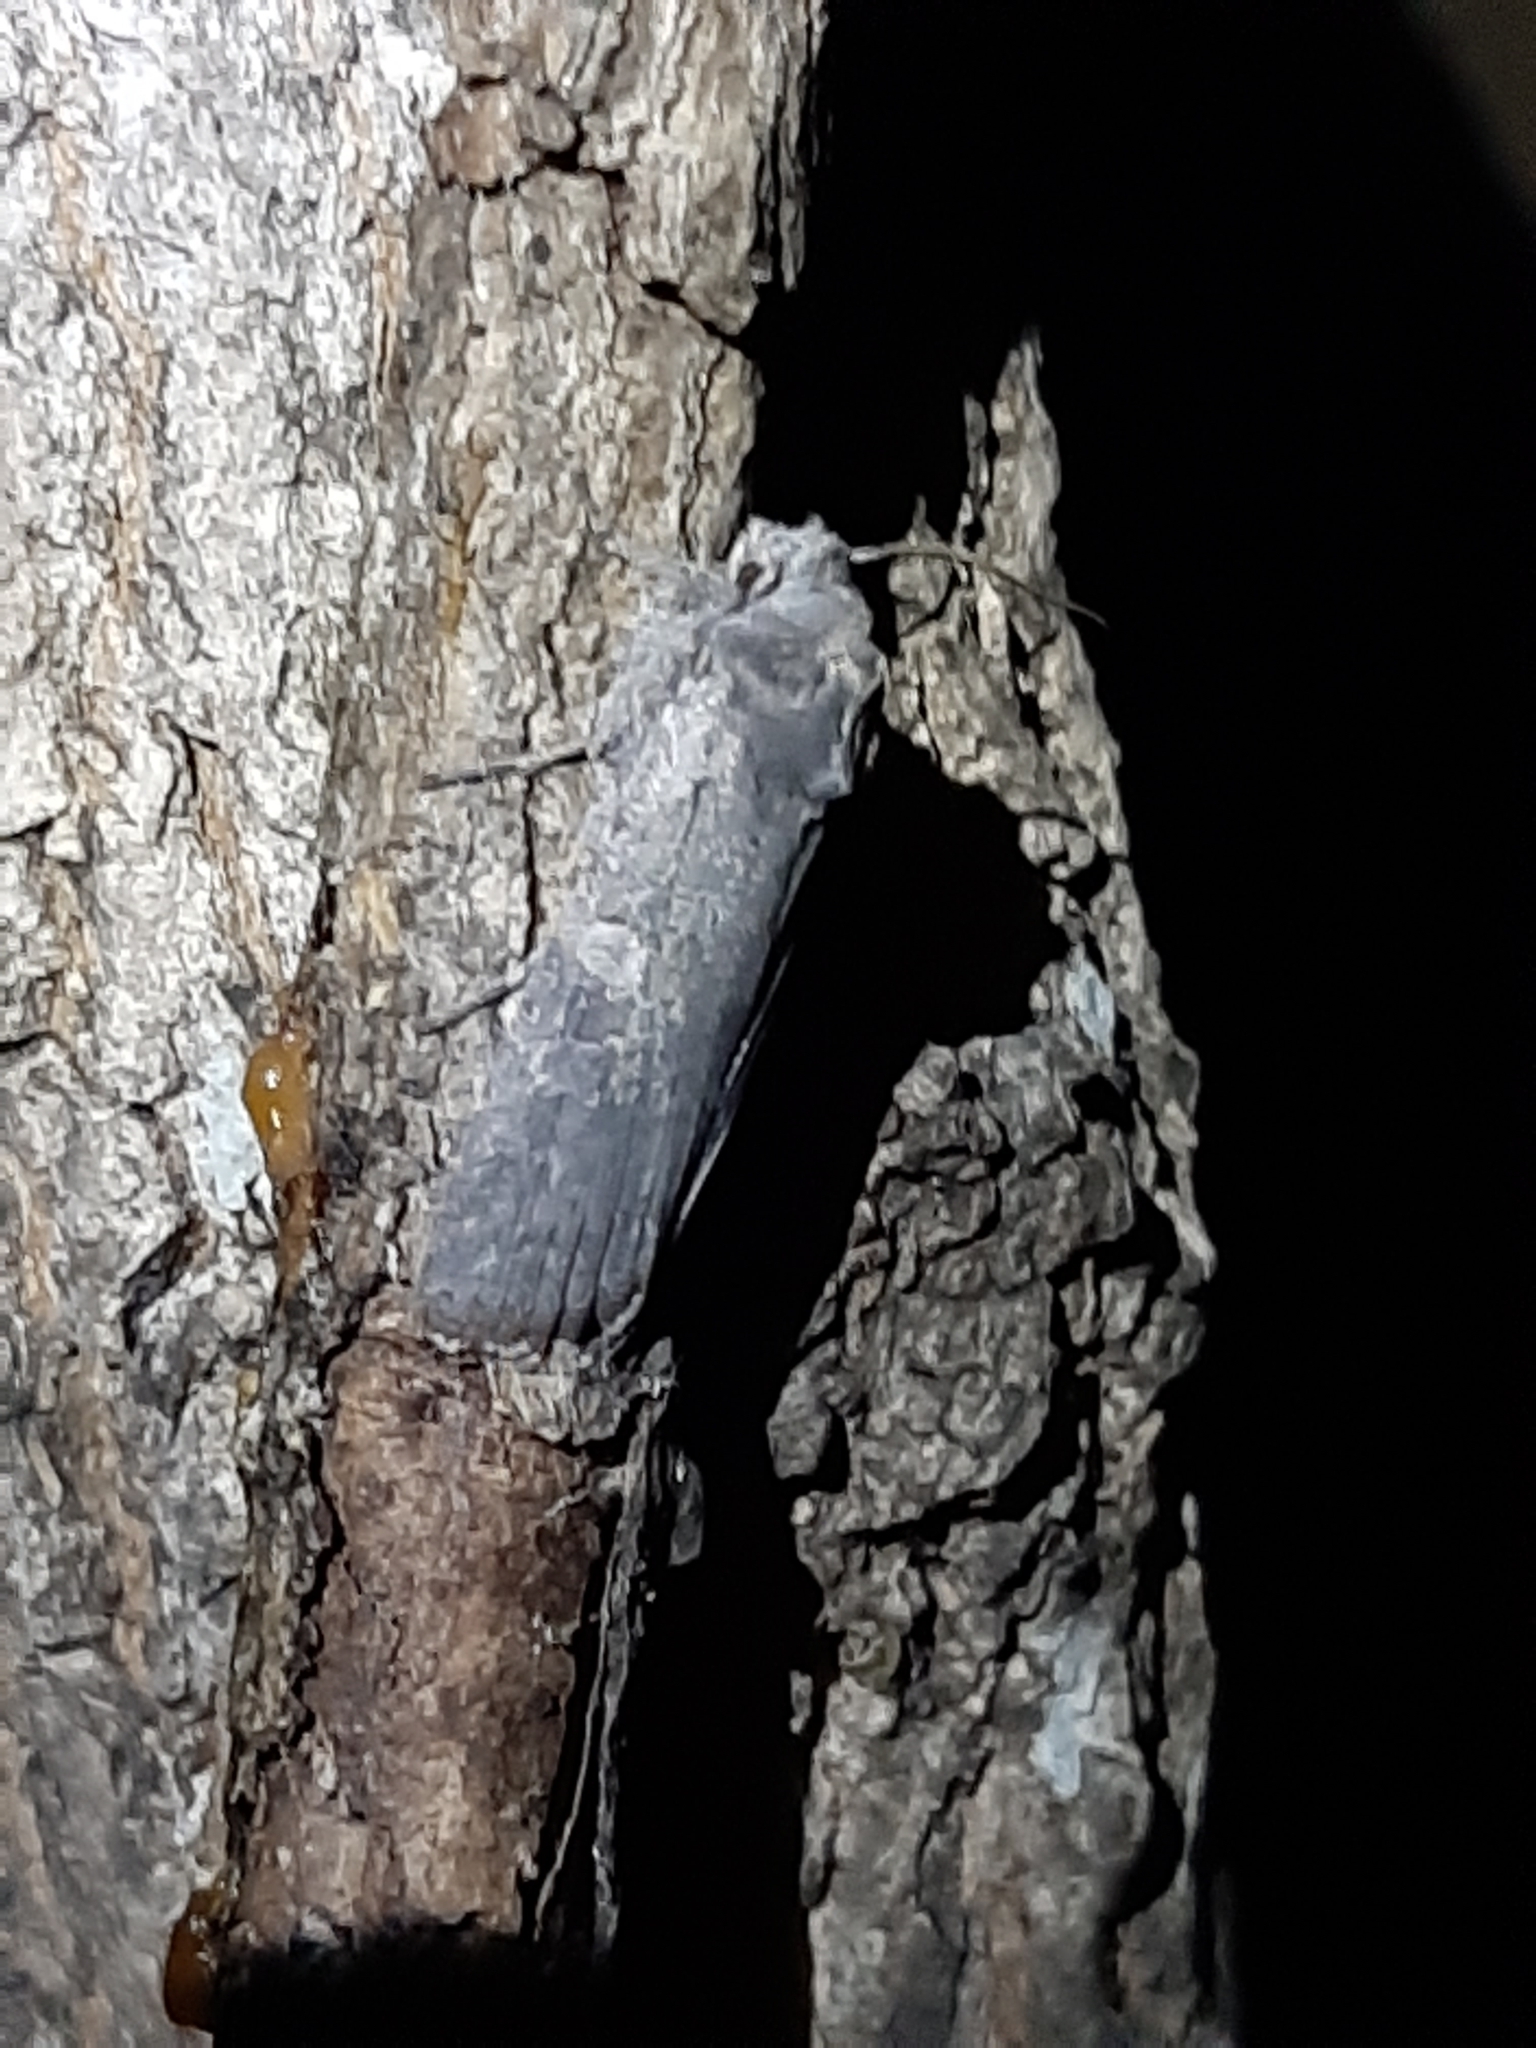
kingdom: Animalia
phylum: Arthropoda
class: Insecta
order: Lepidoptera
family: Noctuidae
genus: Lithophane
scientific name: Lithophane unimoda
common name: Dowdy pinion
